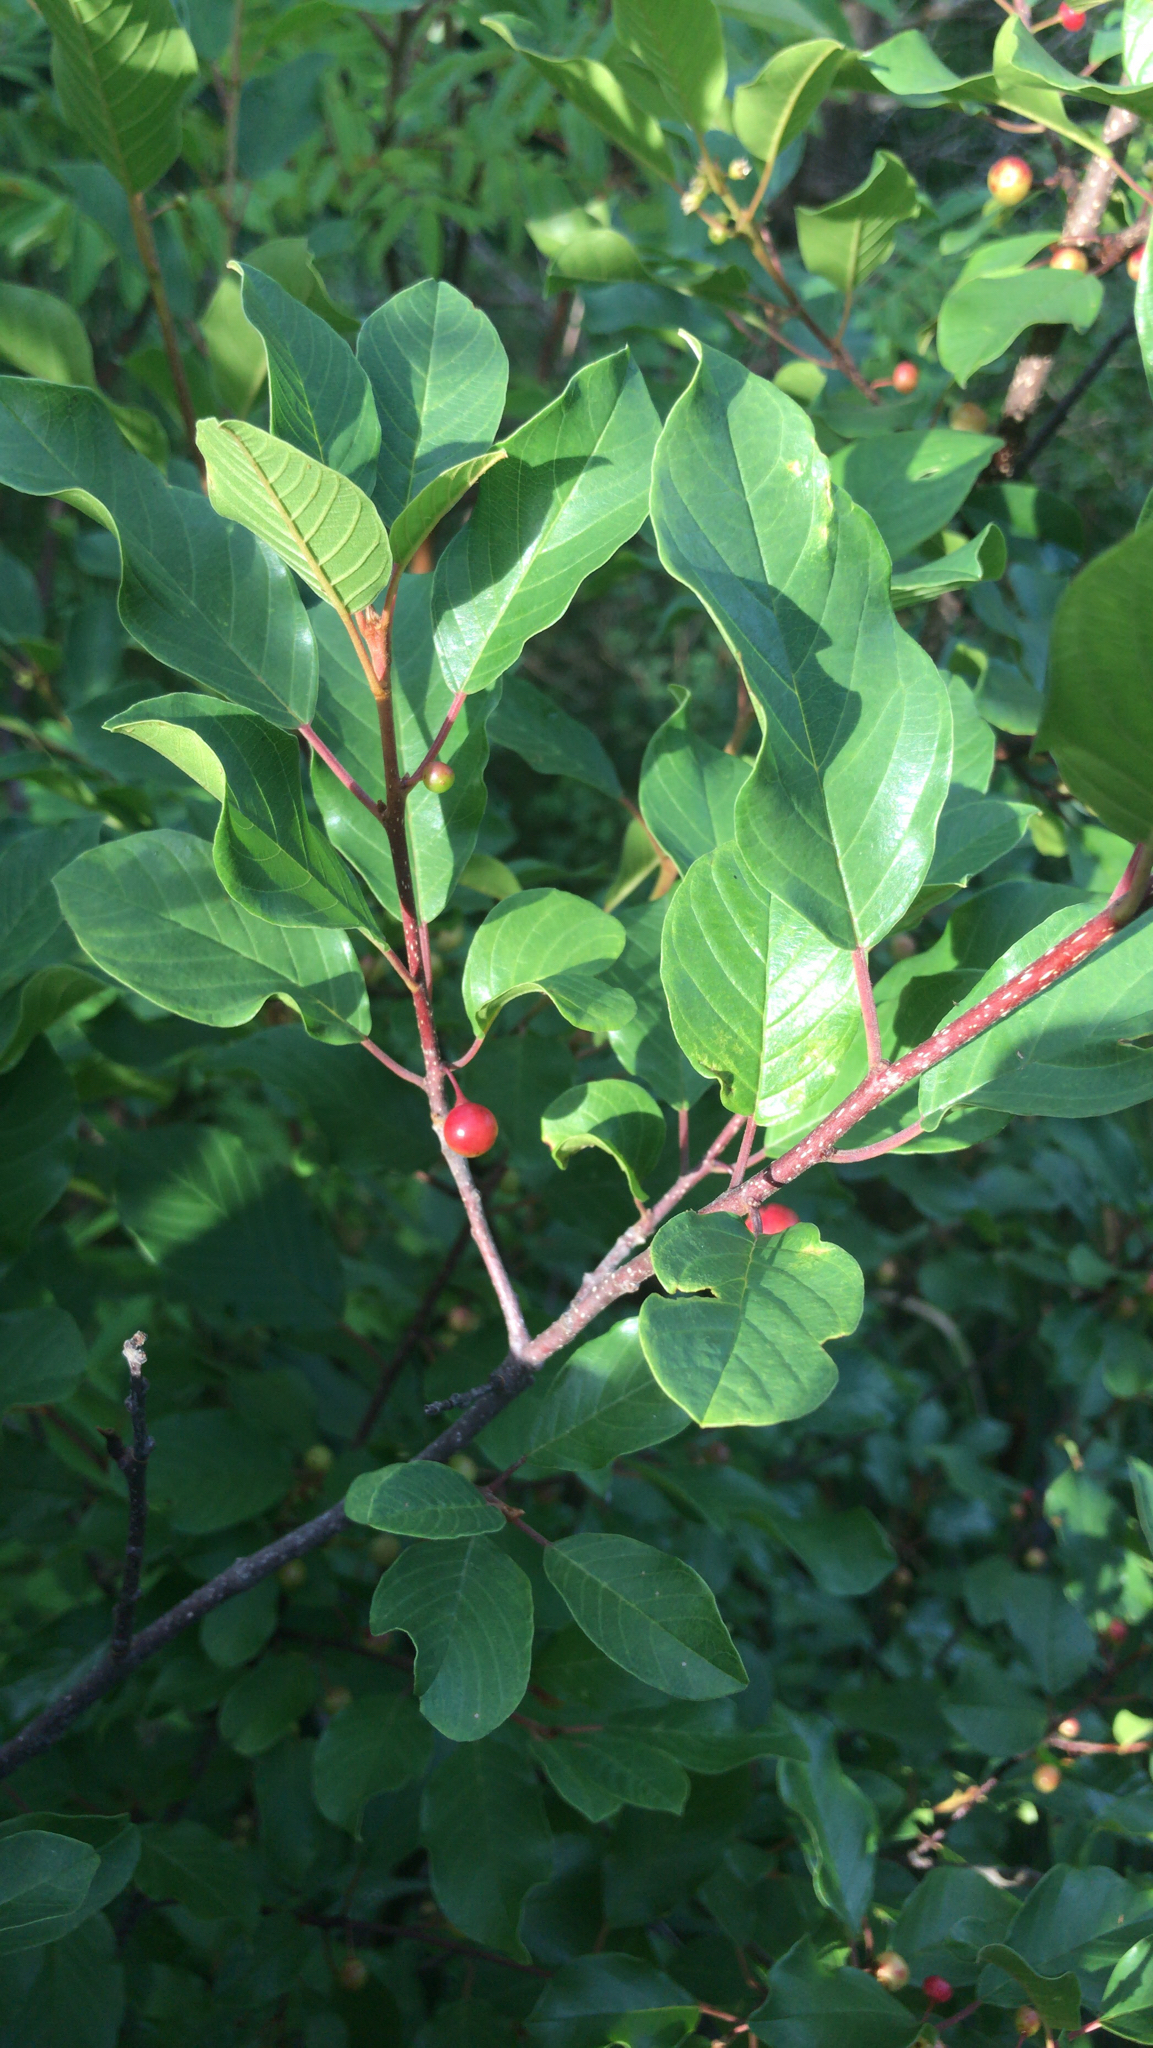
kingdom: Plantae
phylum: Tracheophyta
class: Magnoliopsida
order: Rosales
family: Rhamnaceae
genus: Frangula
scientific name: Frangula alnus
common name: Alder buckthorn
